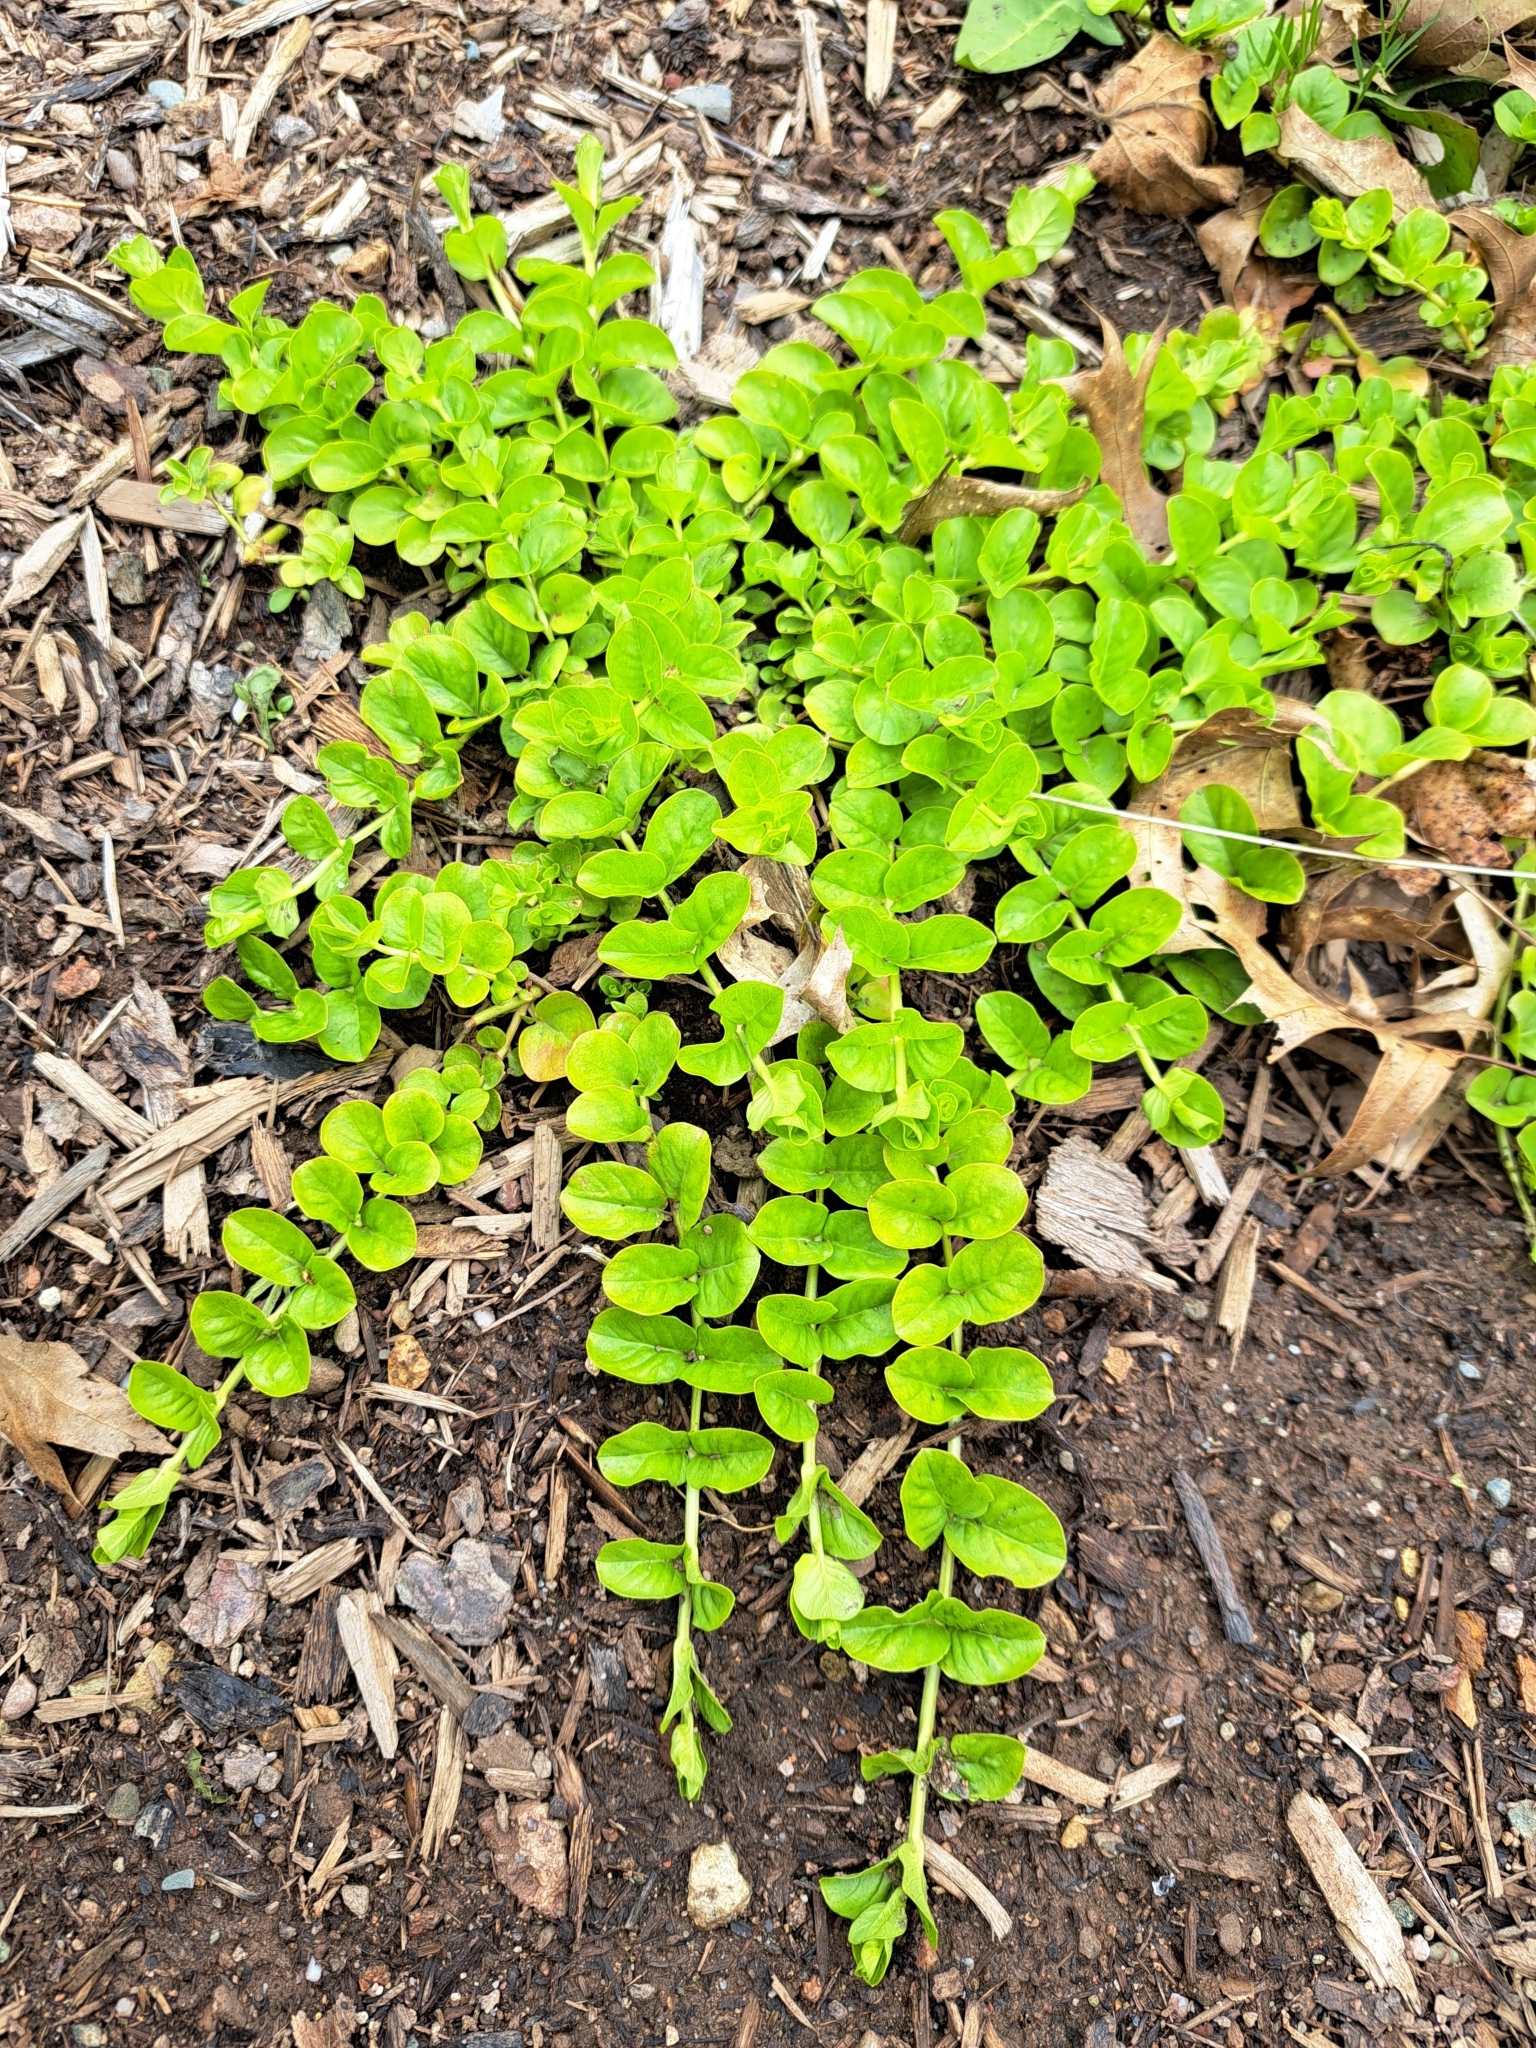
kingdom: Plantae
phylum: Tracheophyta
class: Magnoliopsida
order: Ericales
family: Primulaceae
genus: Lysimachia
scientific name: Lysimachia nummularia
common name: Moneywort
